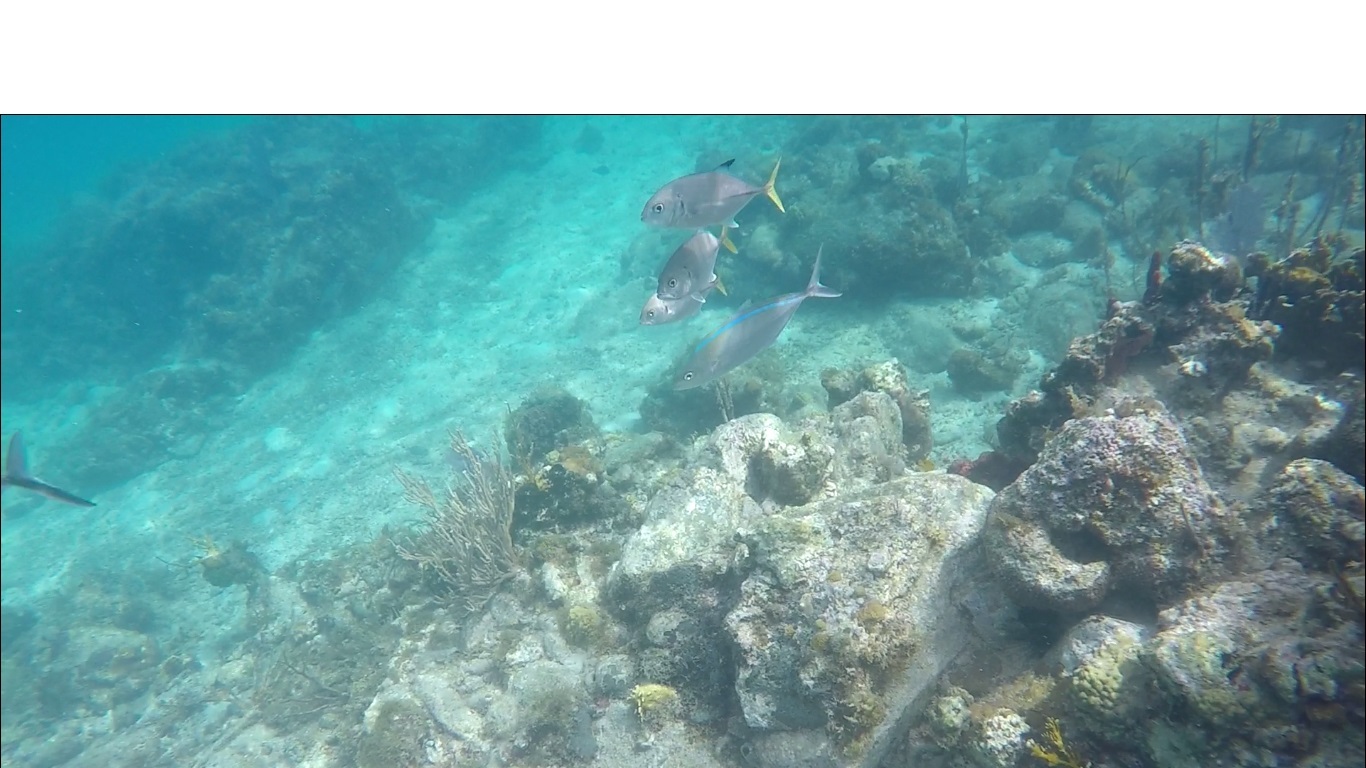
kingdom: Animalia
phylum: Chordata
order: Perciformes
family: Carangidae
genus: Caranx
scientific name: Caranx latus
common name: Horse eye jack
